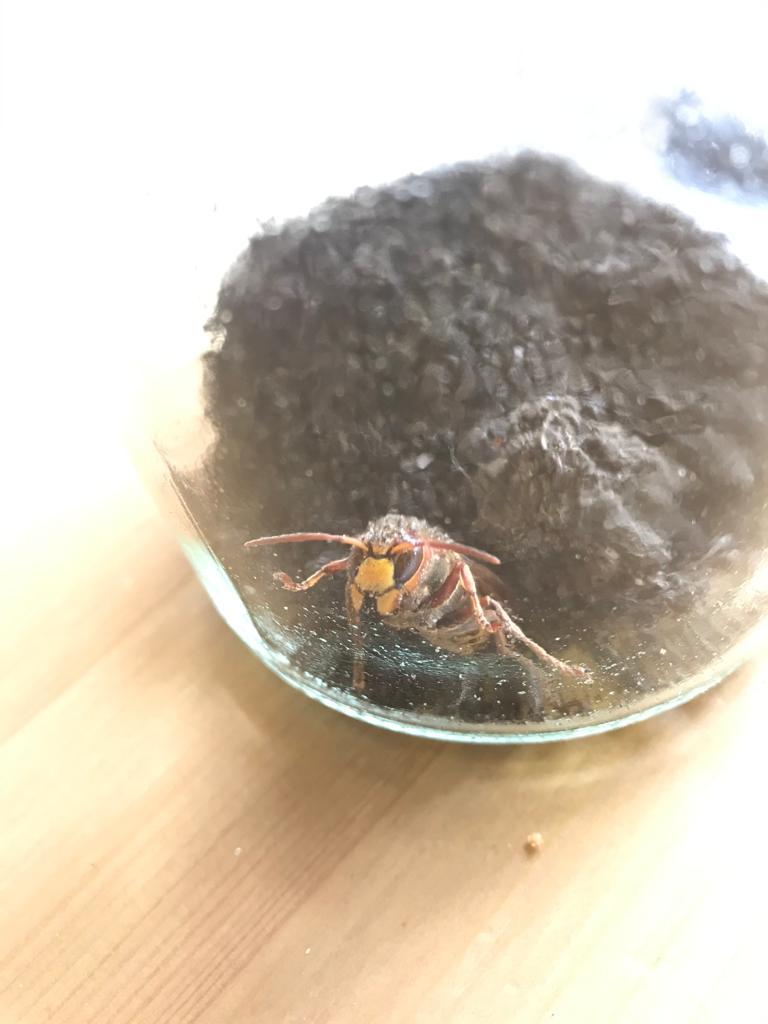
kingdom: Animalia
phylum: Arthropoda
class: Insecta
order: Hymenoptera
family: Vespidae
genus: Vespa
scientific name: Vespa crabro
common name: Hornet
